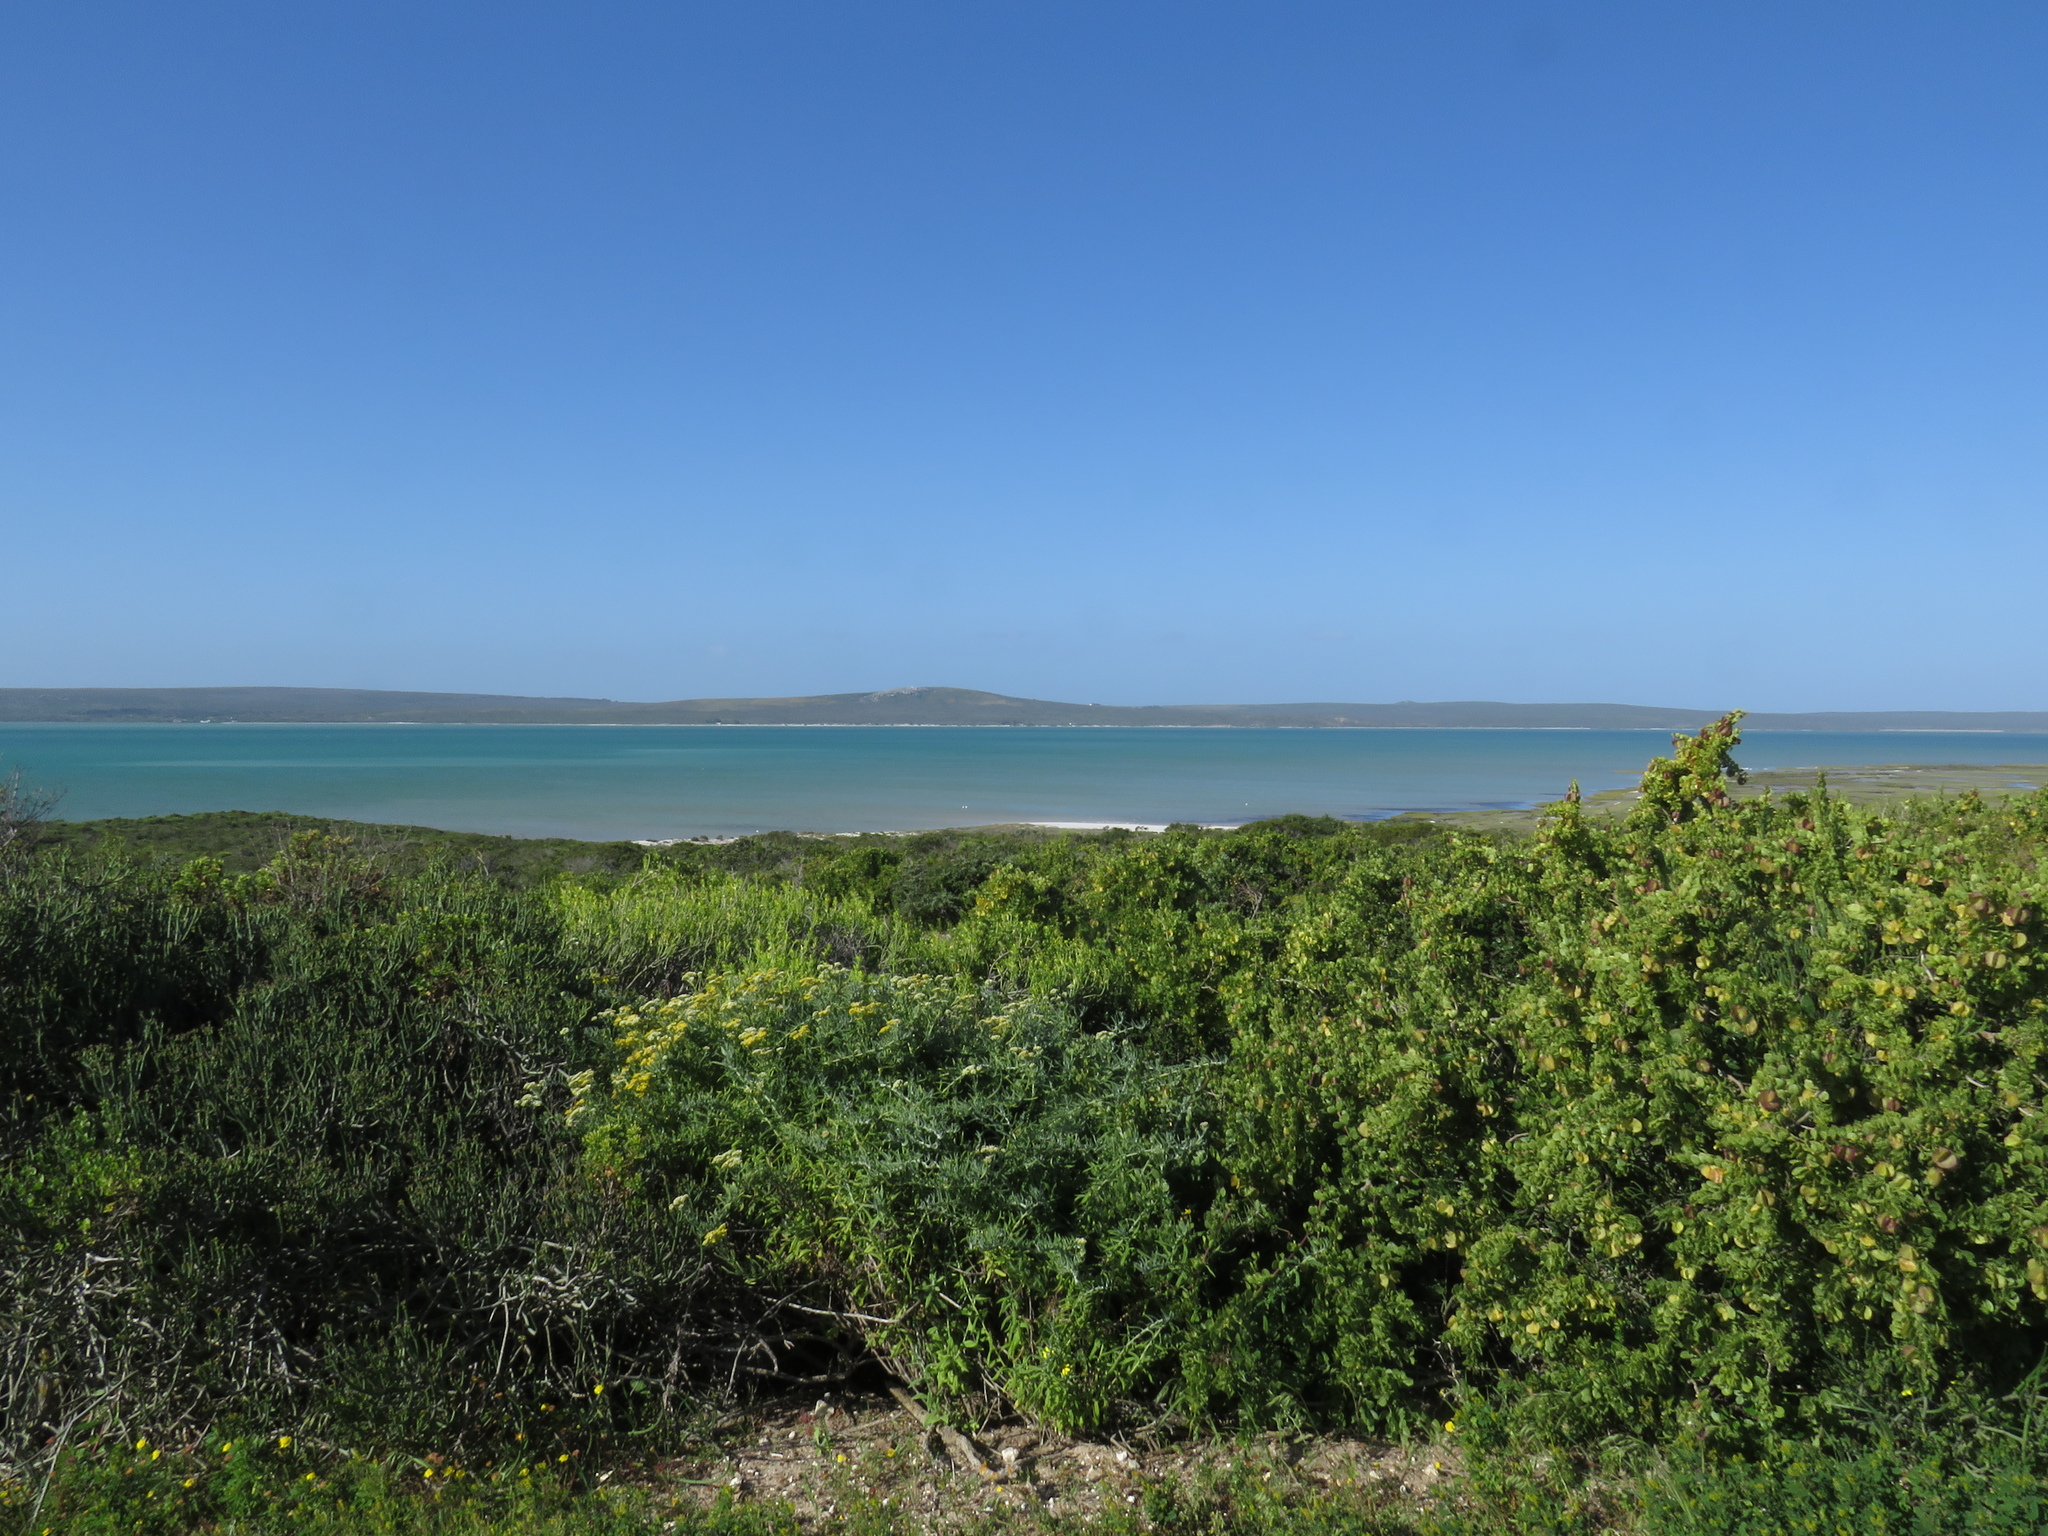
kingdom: Animalia
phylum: Chordata
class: Aves
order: Phoenicopteriformes
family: Phoenicopteridae
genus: Phoenicopterus
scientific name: Phoenicopterus roseus
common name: Greater flamingo
